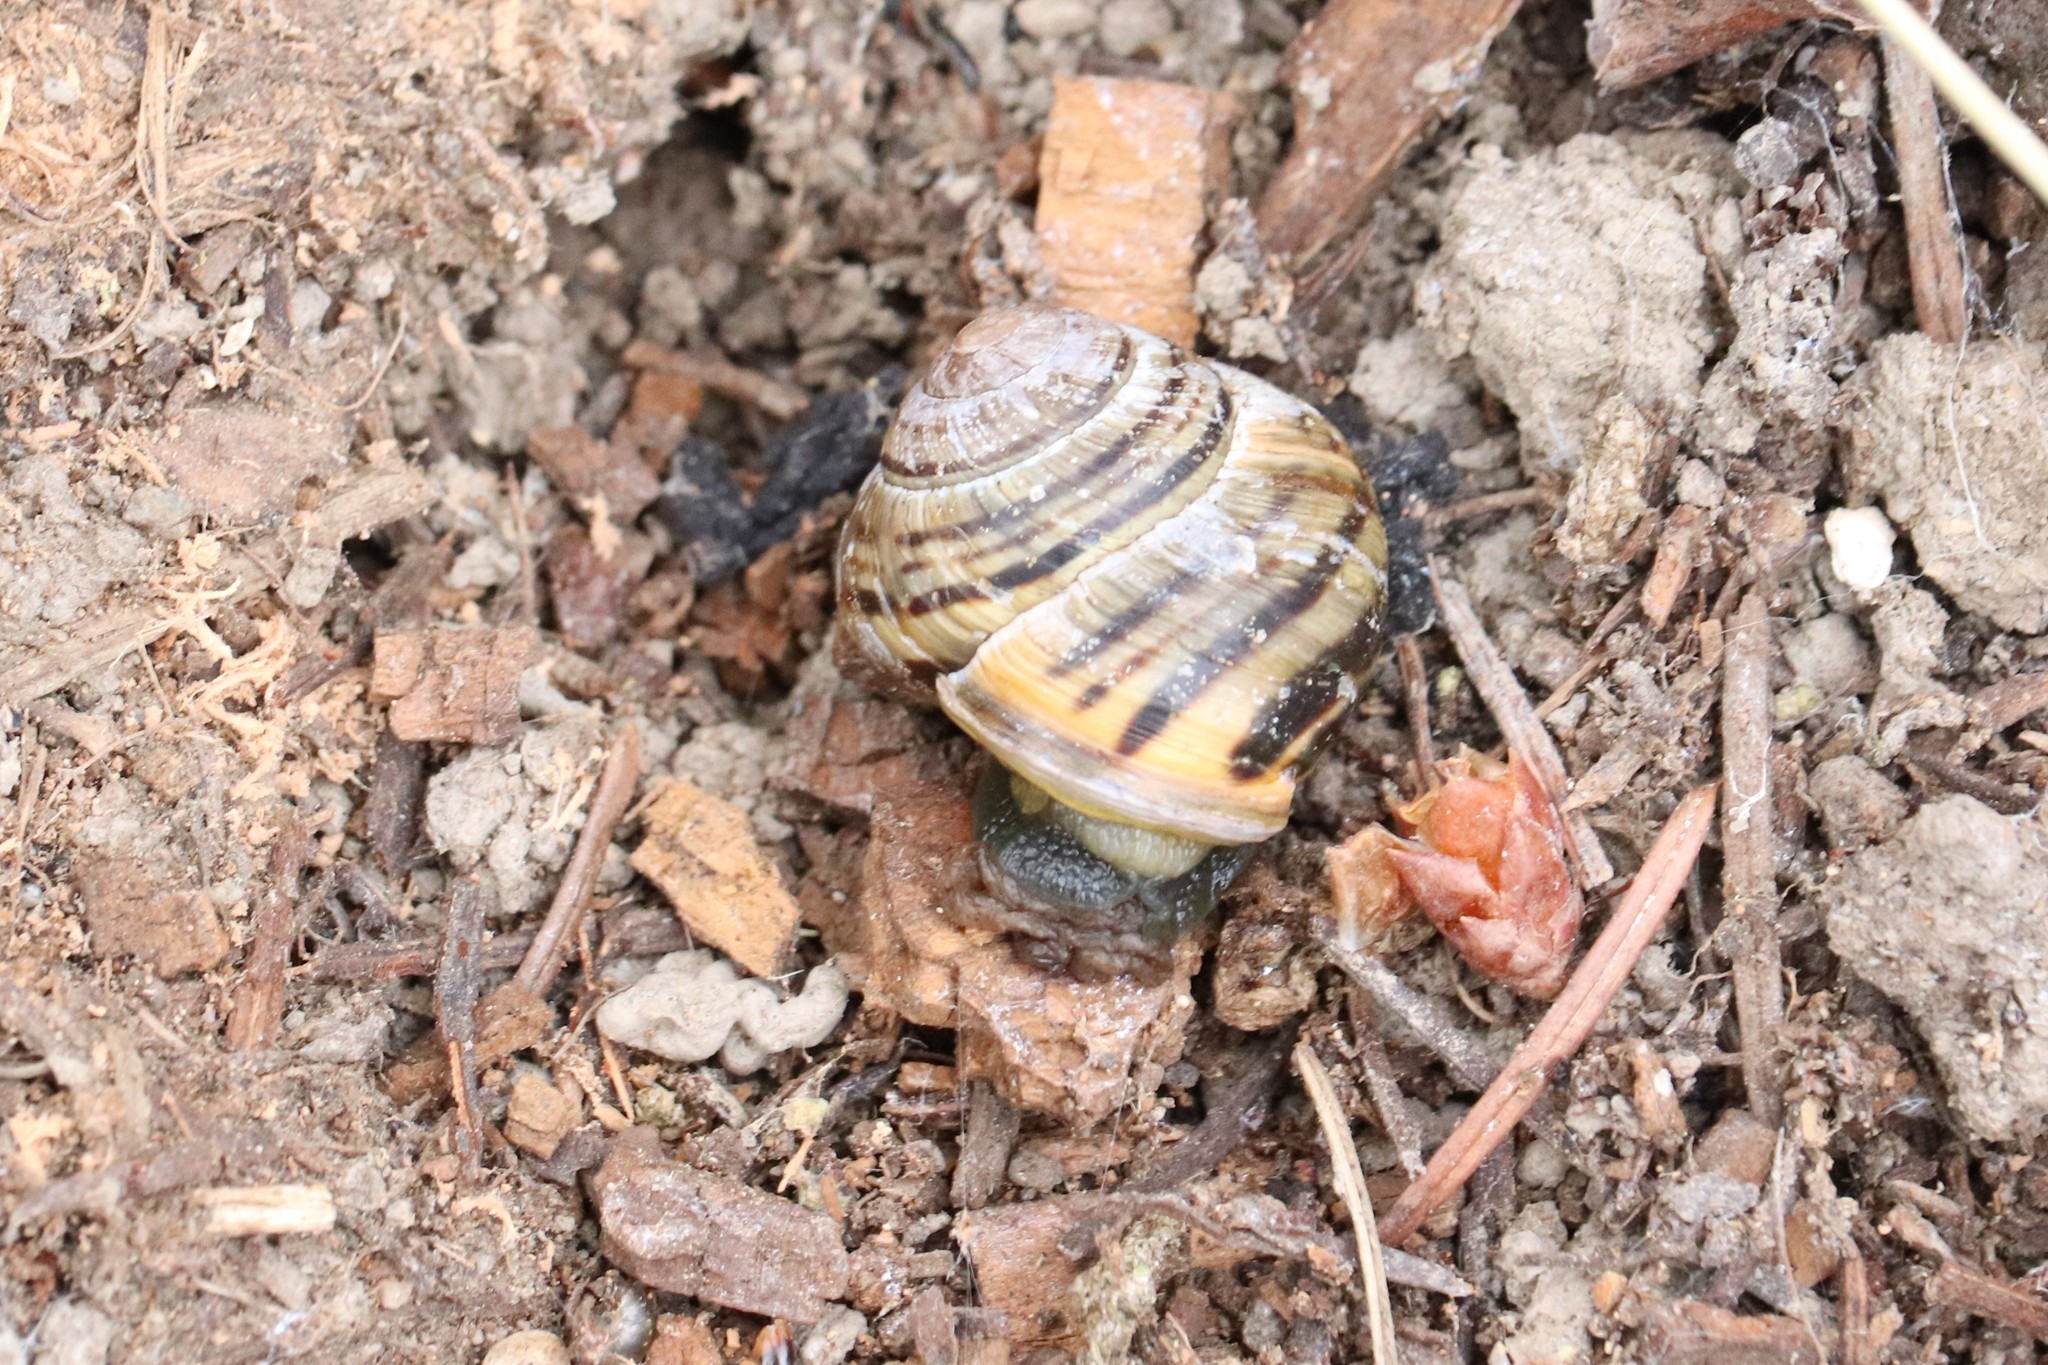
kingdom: Animalia
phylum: Mollusca
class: Gastropoda
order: Stylommatophora
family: Helicidae
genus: Cepaea
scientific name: Cepaea nemoralis
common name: Grovesnail
